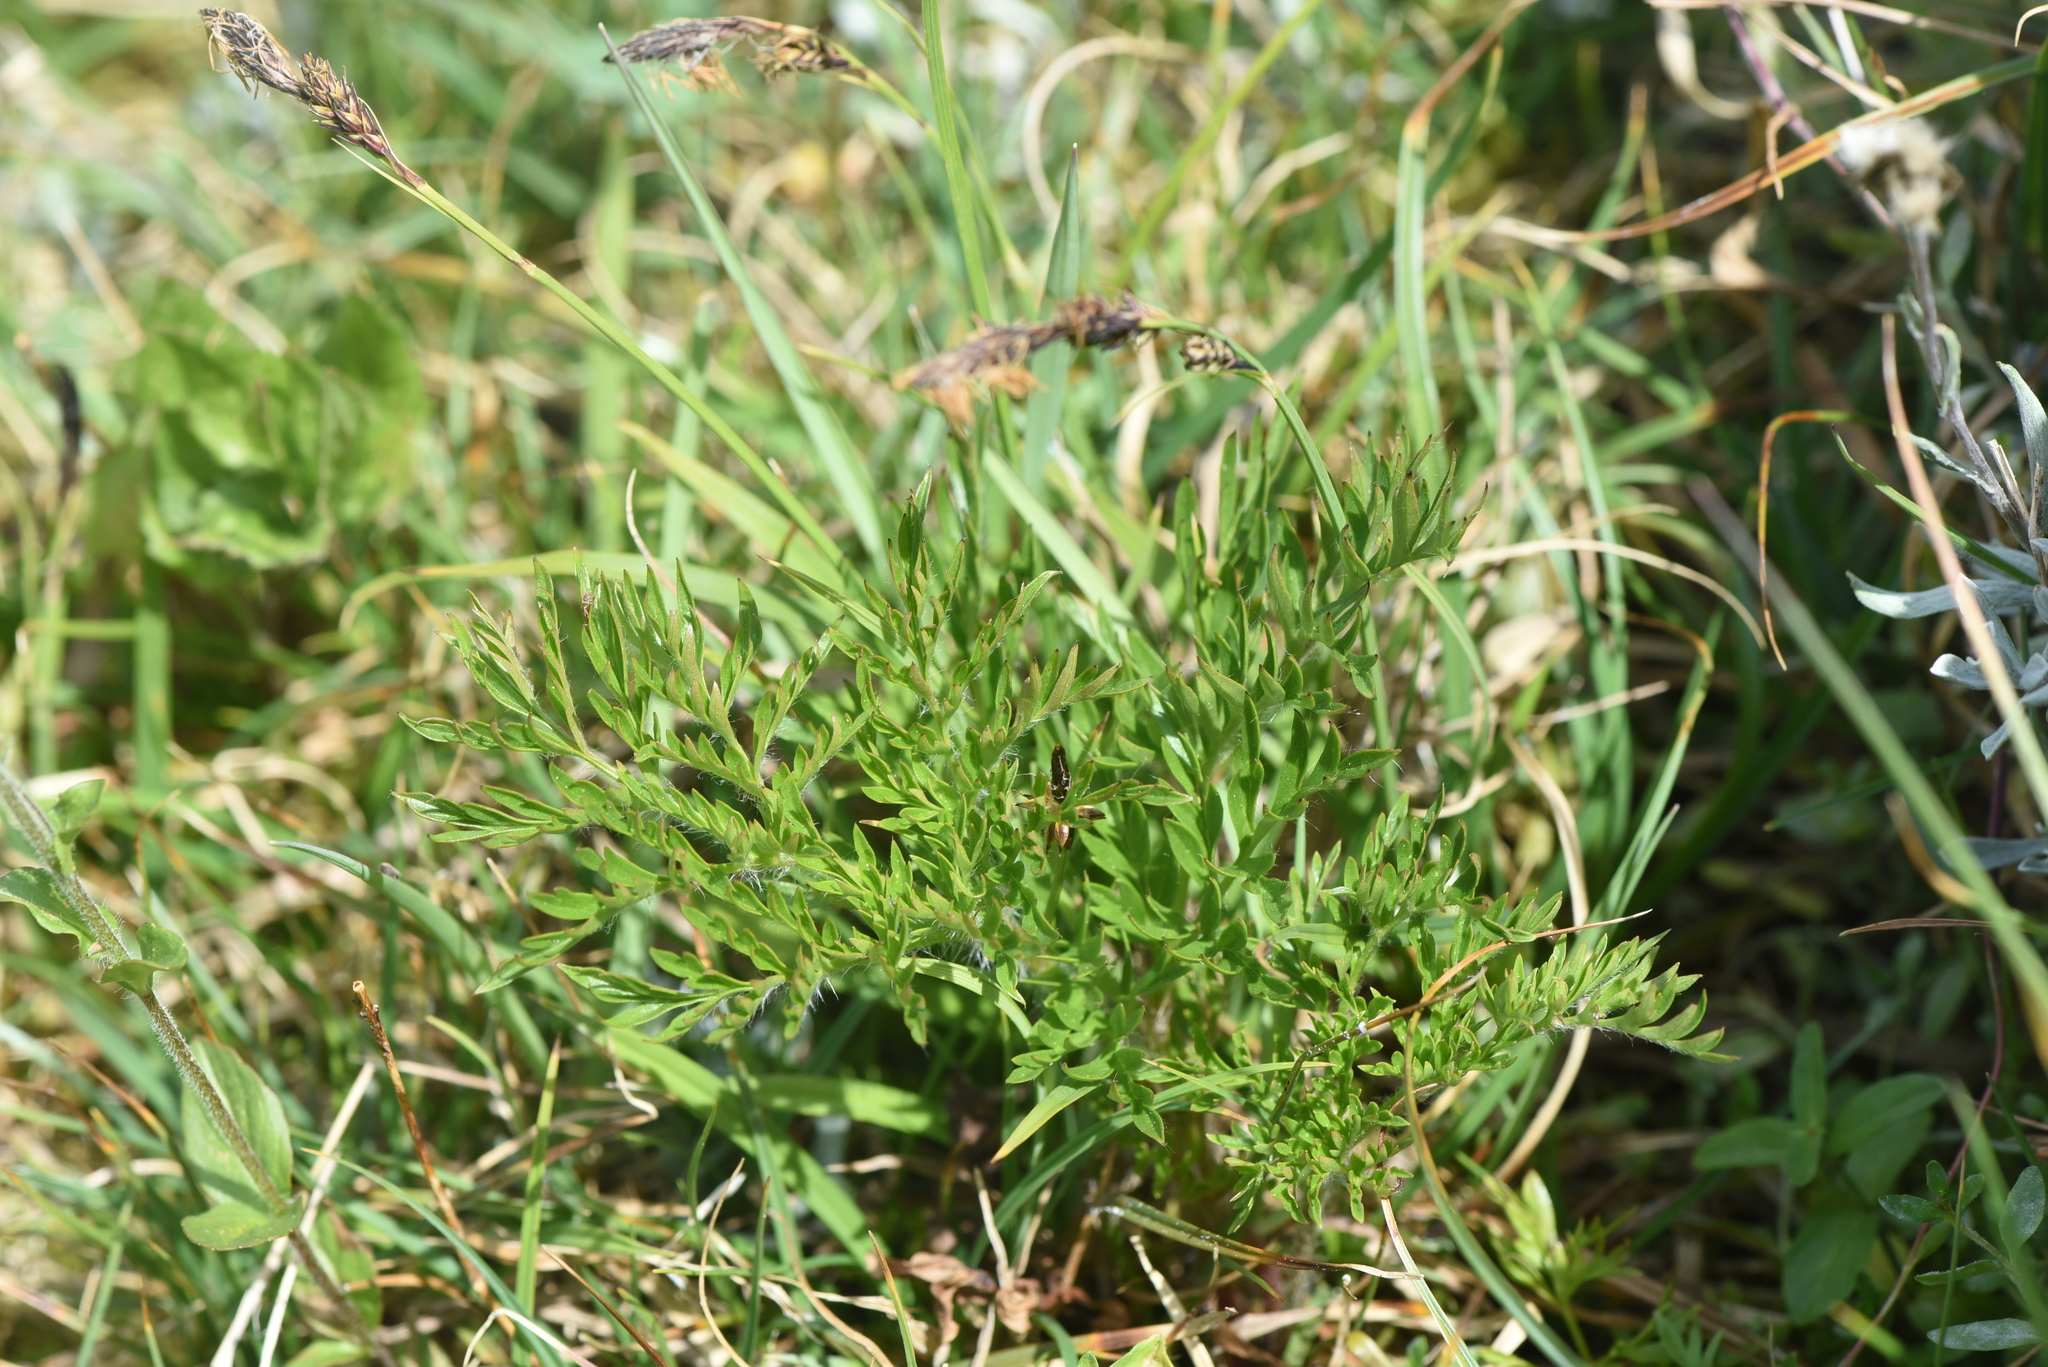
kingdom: Plantae
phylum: Tracheophyta
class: Magnoliopsida
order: Ranunculales
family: Ranunculaceae
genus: Pulsatilla
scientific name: Pulsatilla occidentalis
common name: Mountain pasqueflower
